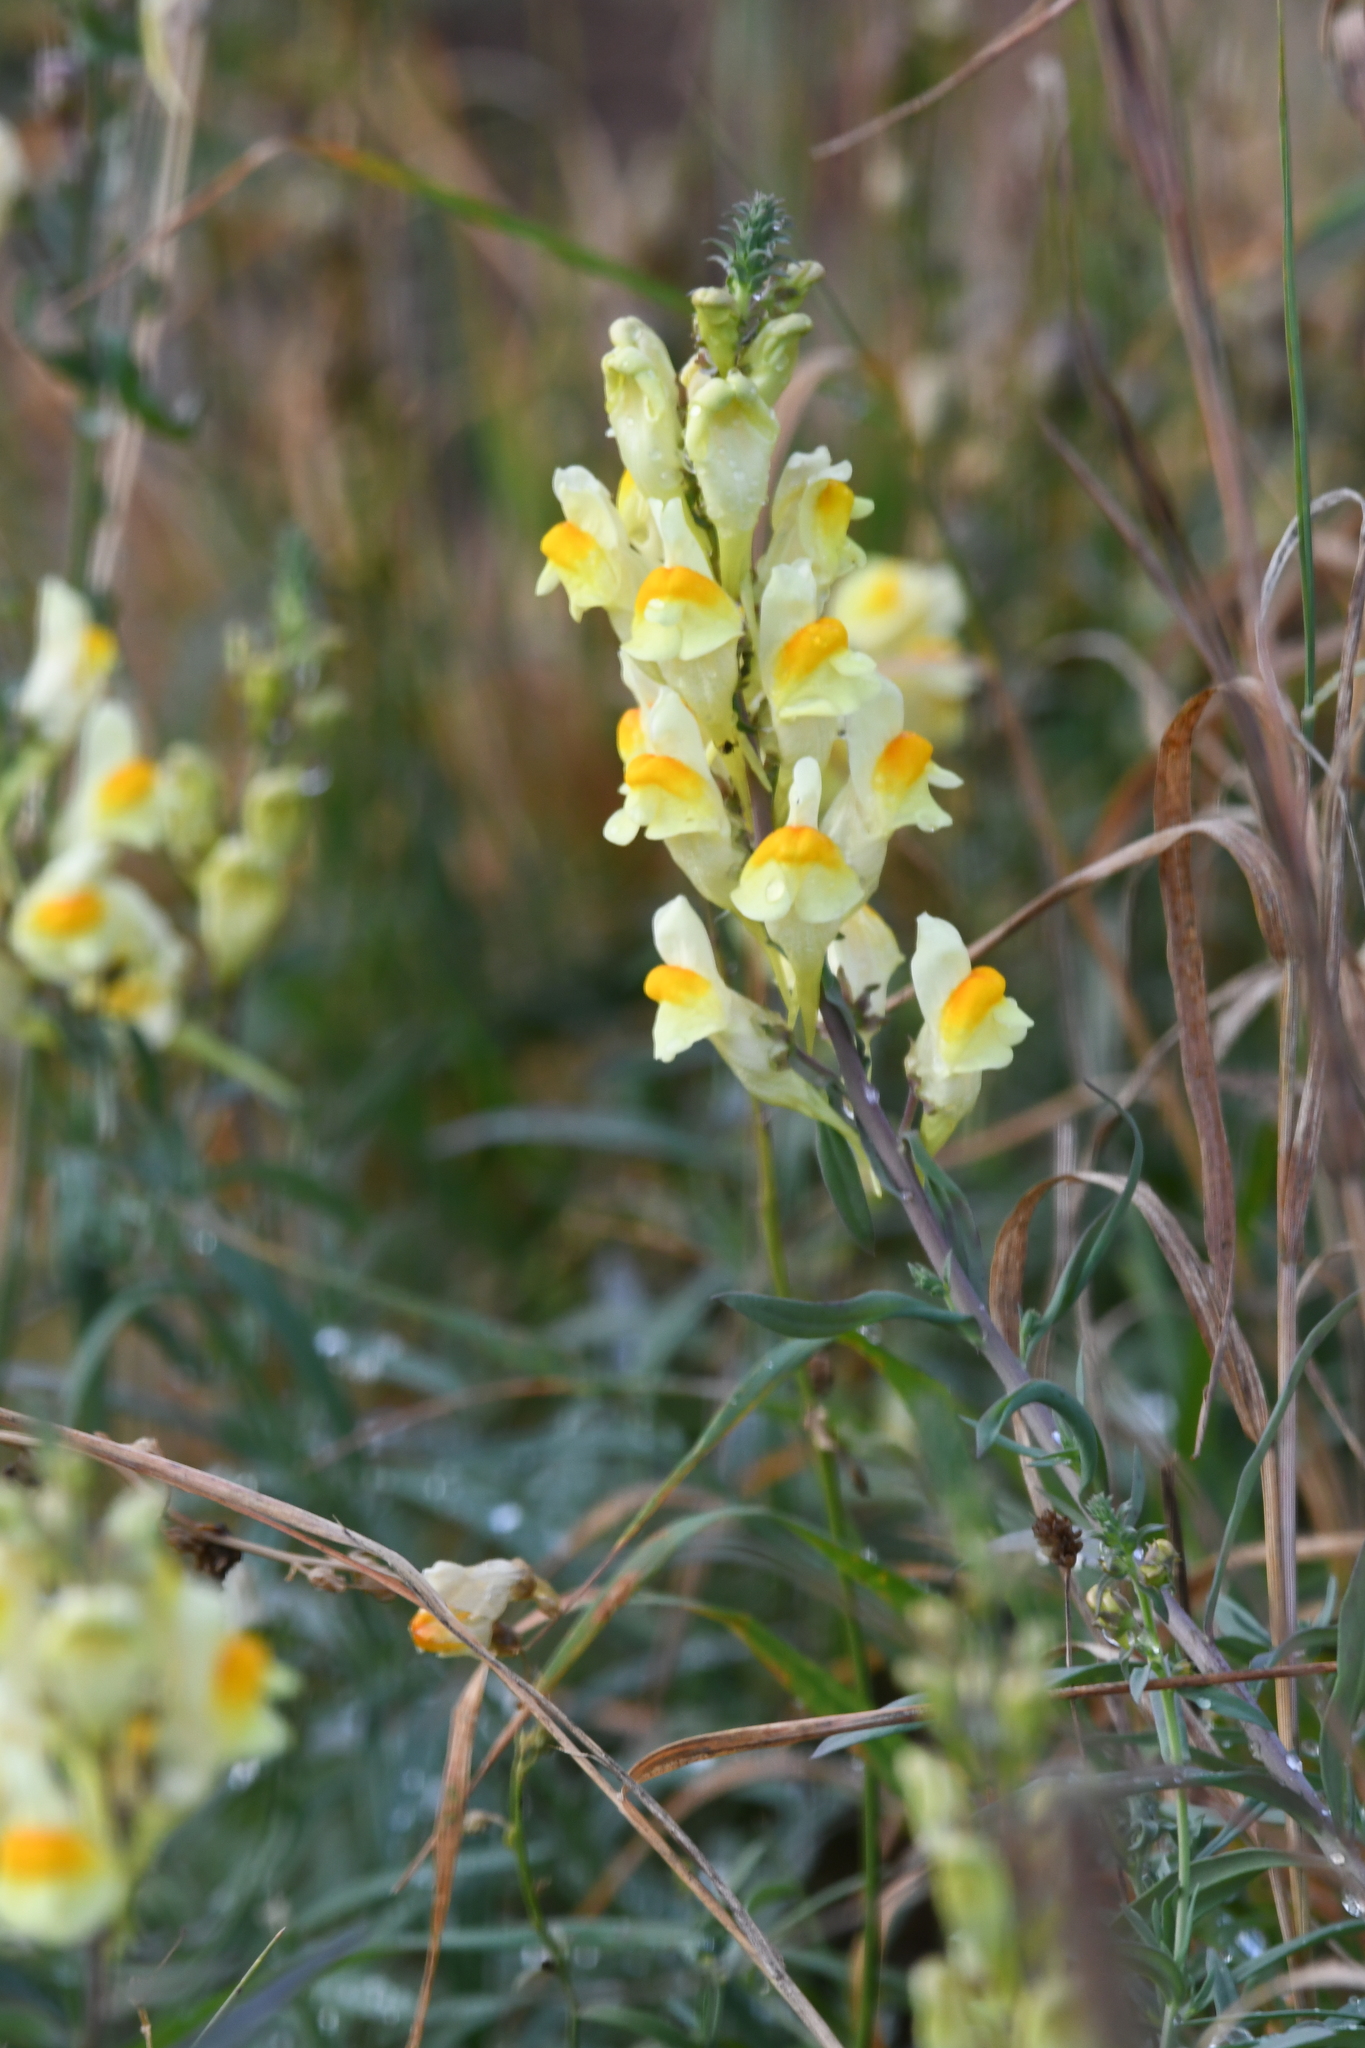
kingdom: Plantae
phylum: Tracheophyta
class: Magnoliopsida
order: Lamiales
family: Plantaginaceae
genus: Linaria
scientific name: Linaria vulgaris
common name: Butter and eggs
